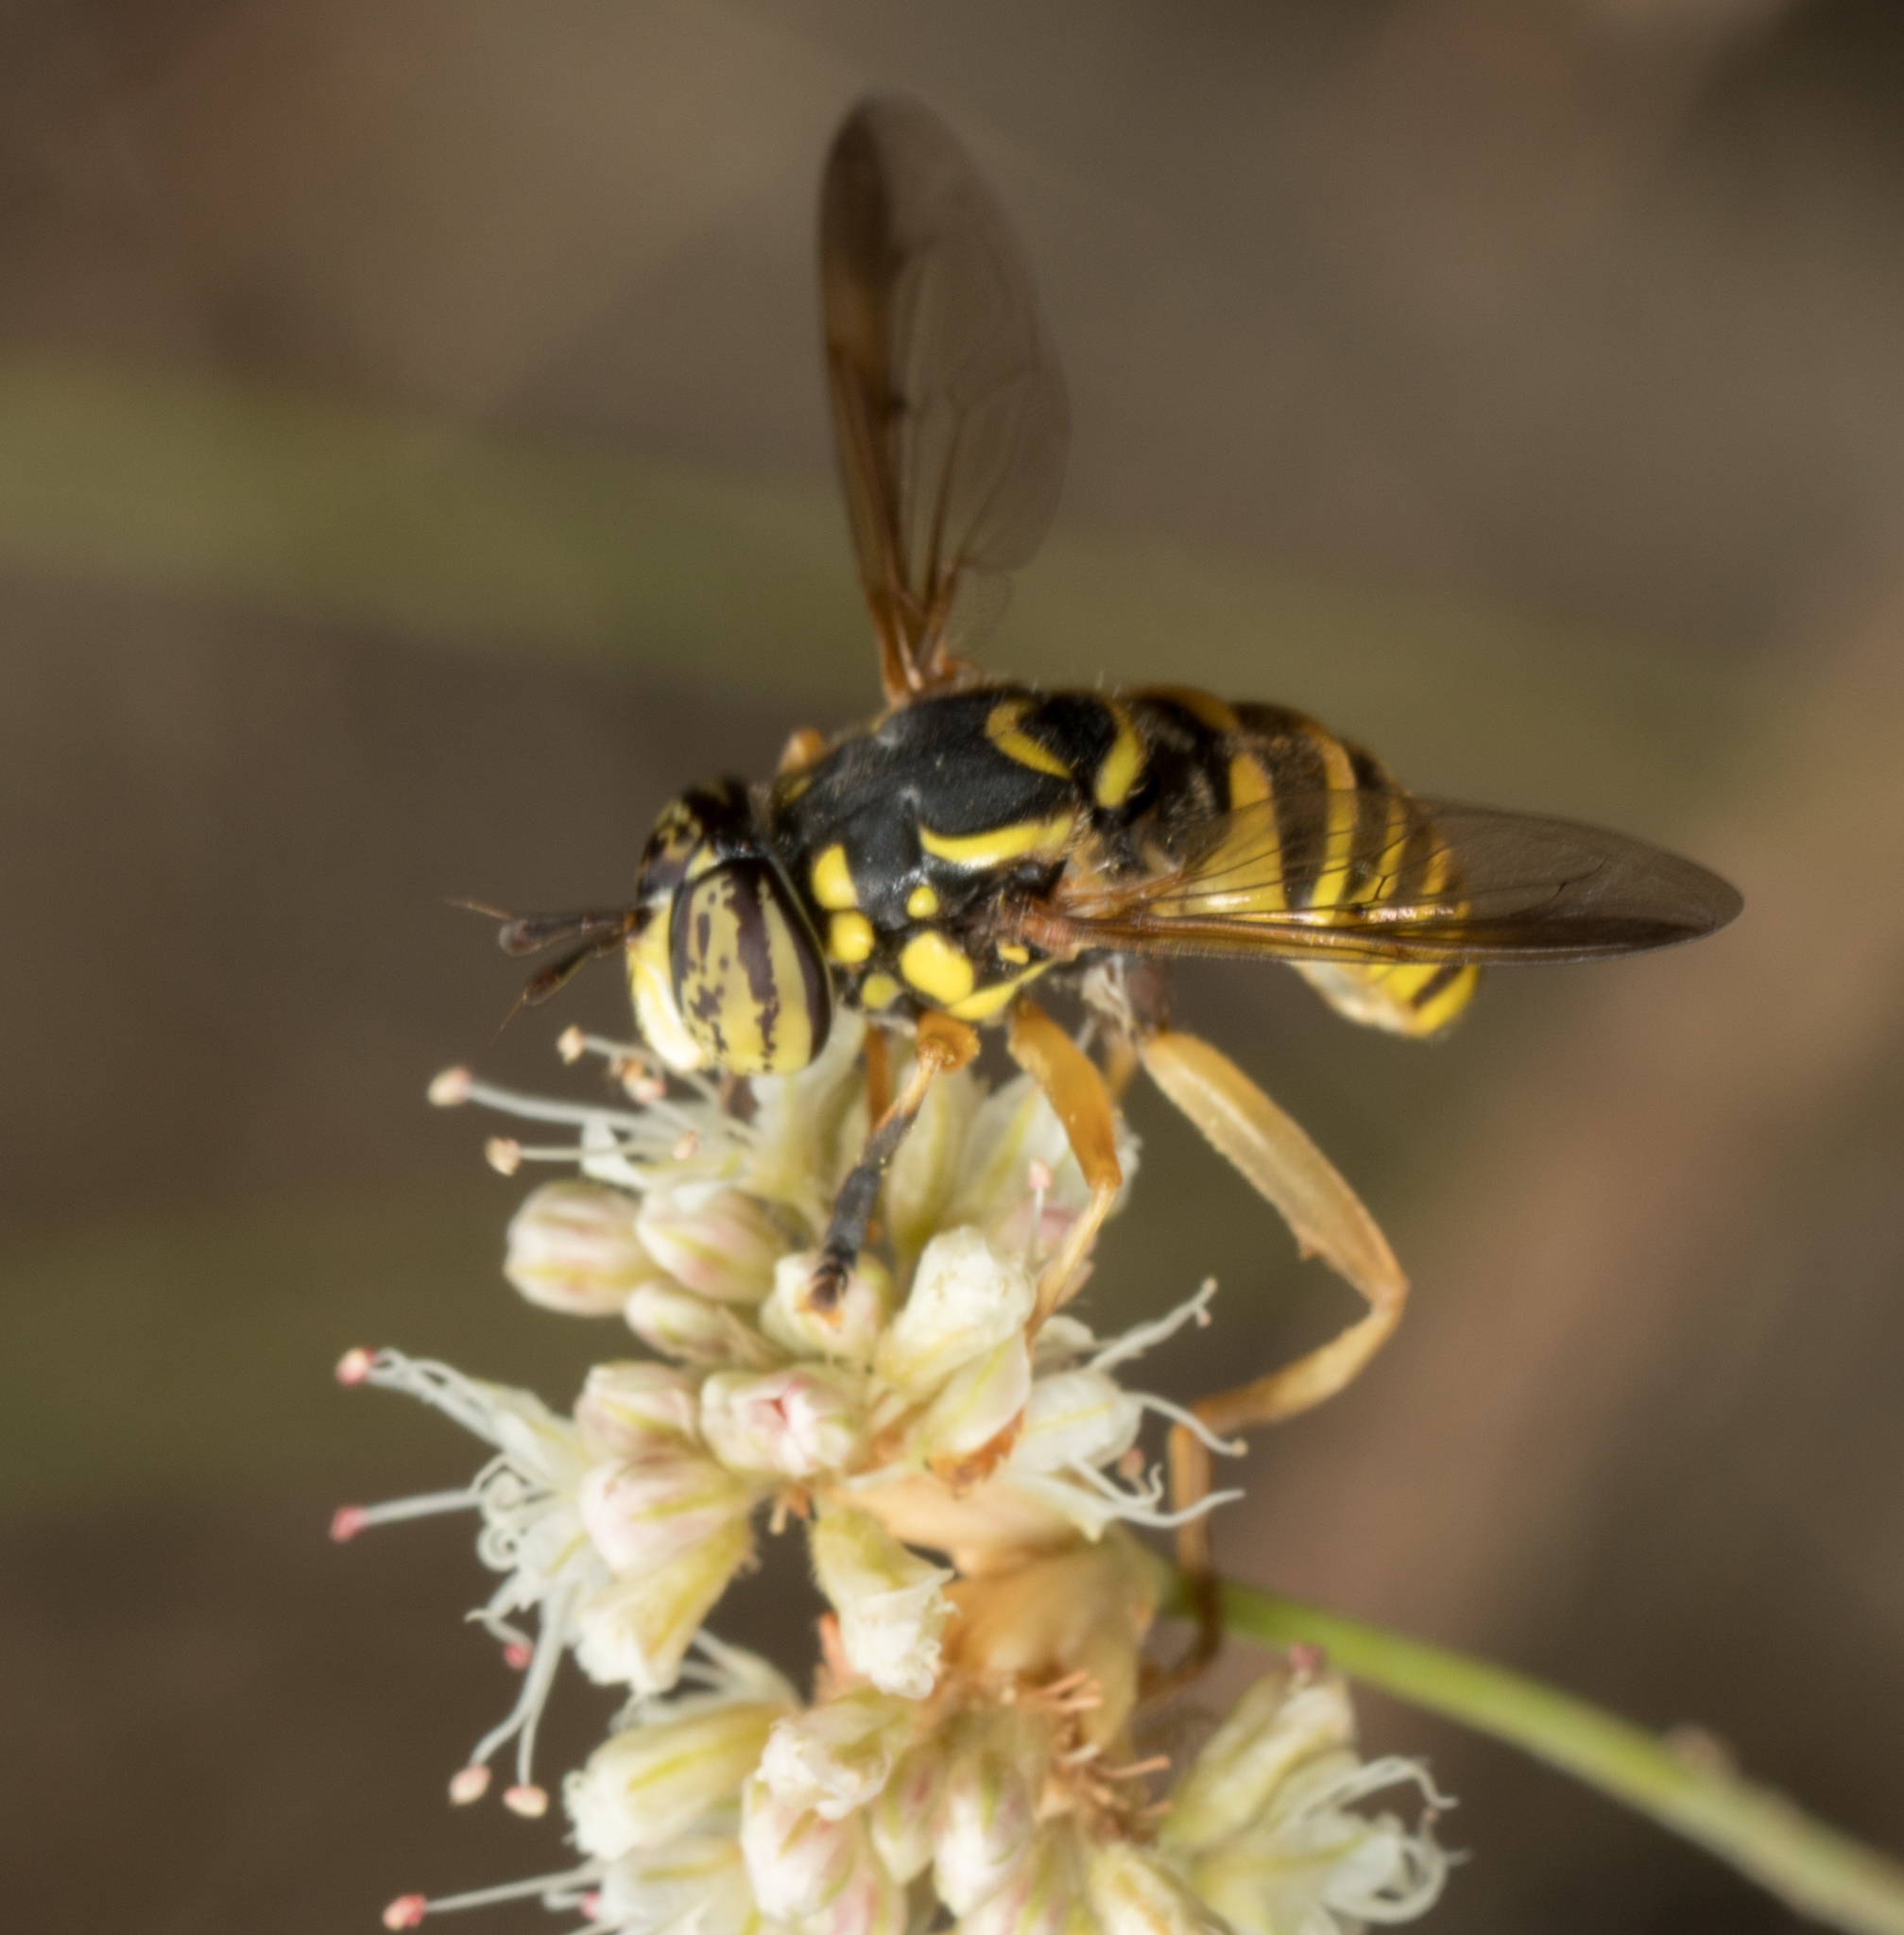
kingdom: Animalia
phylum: Arthropoda
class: Insecta
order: Diptera
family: Syrphidae
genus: Spilomyia
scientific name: Spilomyia interrupta
